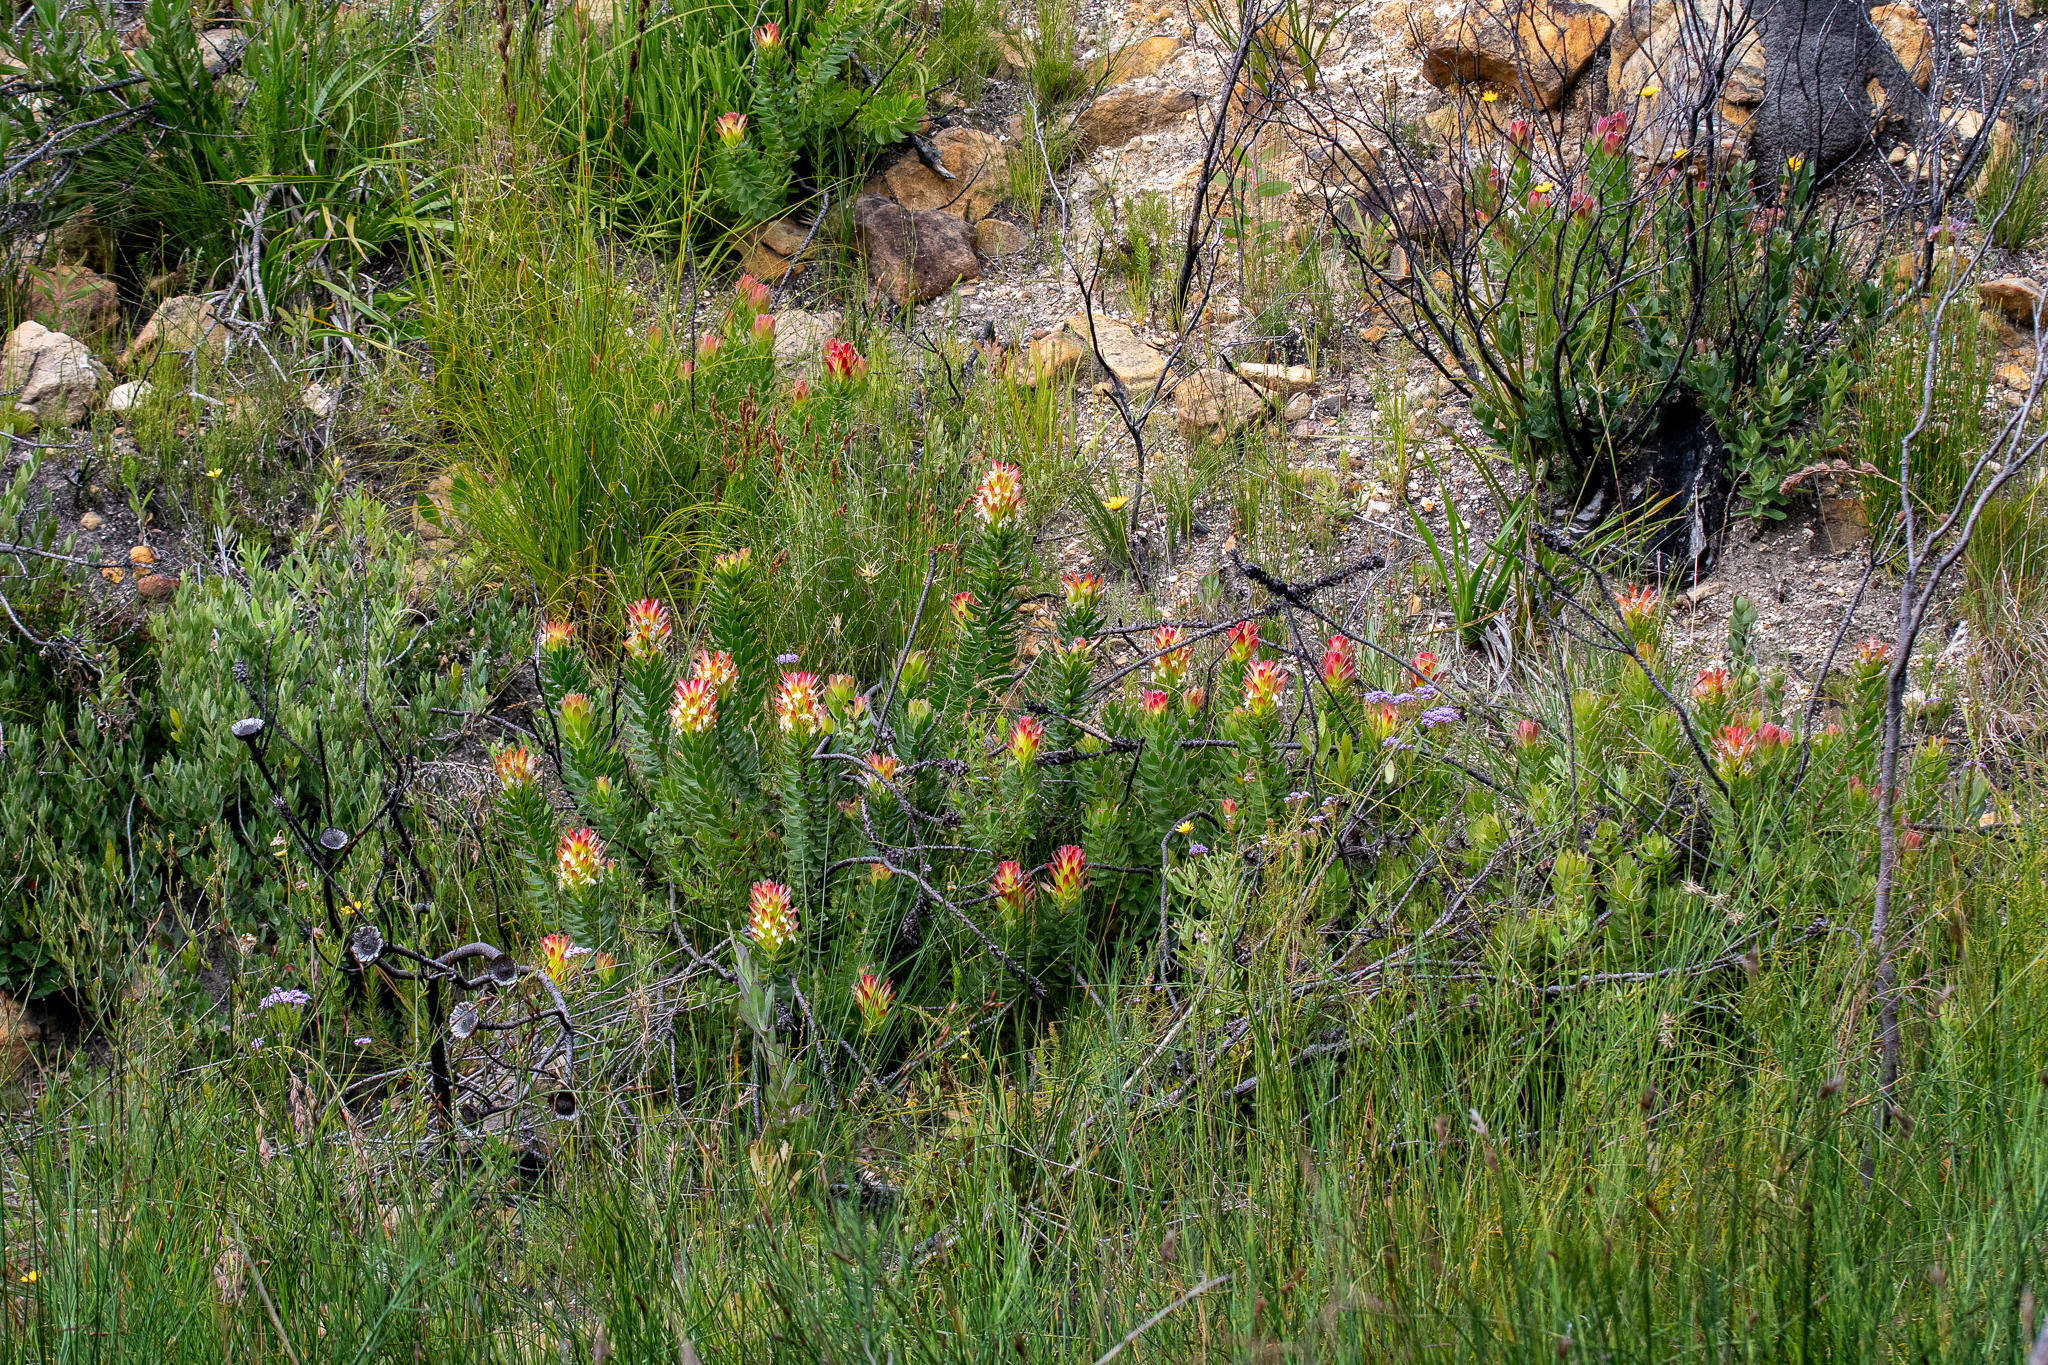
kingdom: Plantae
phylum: Tracheophyta
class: Magnoliopsida
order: Proteales
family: Proteaceae
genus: Mimetes
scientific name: Mimetes cucullatus
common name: Common pagoda
